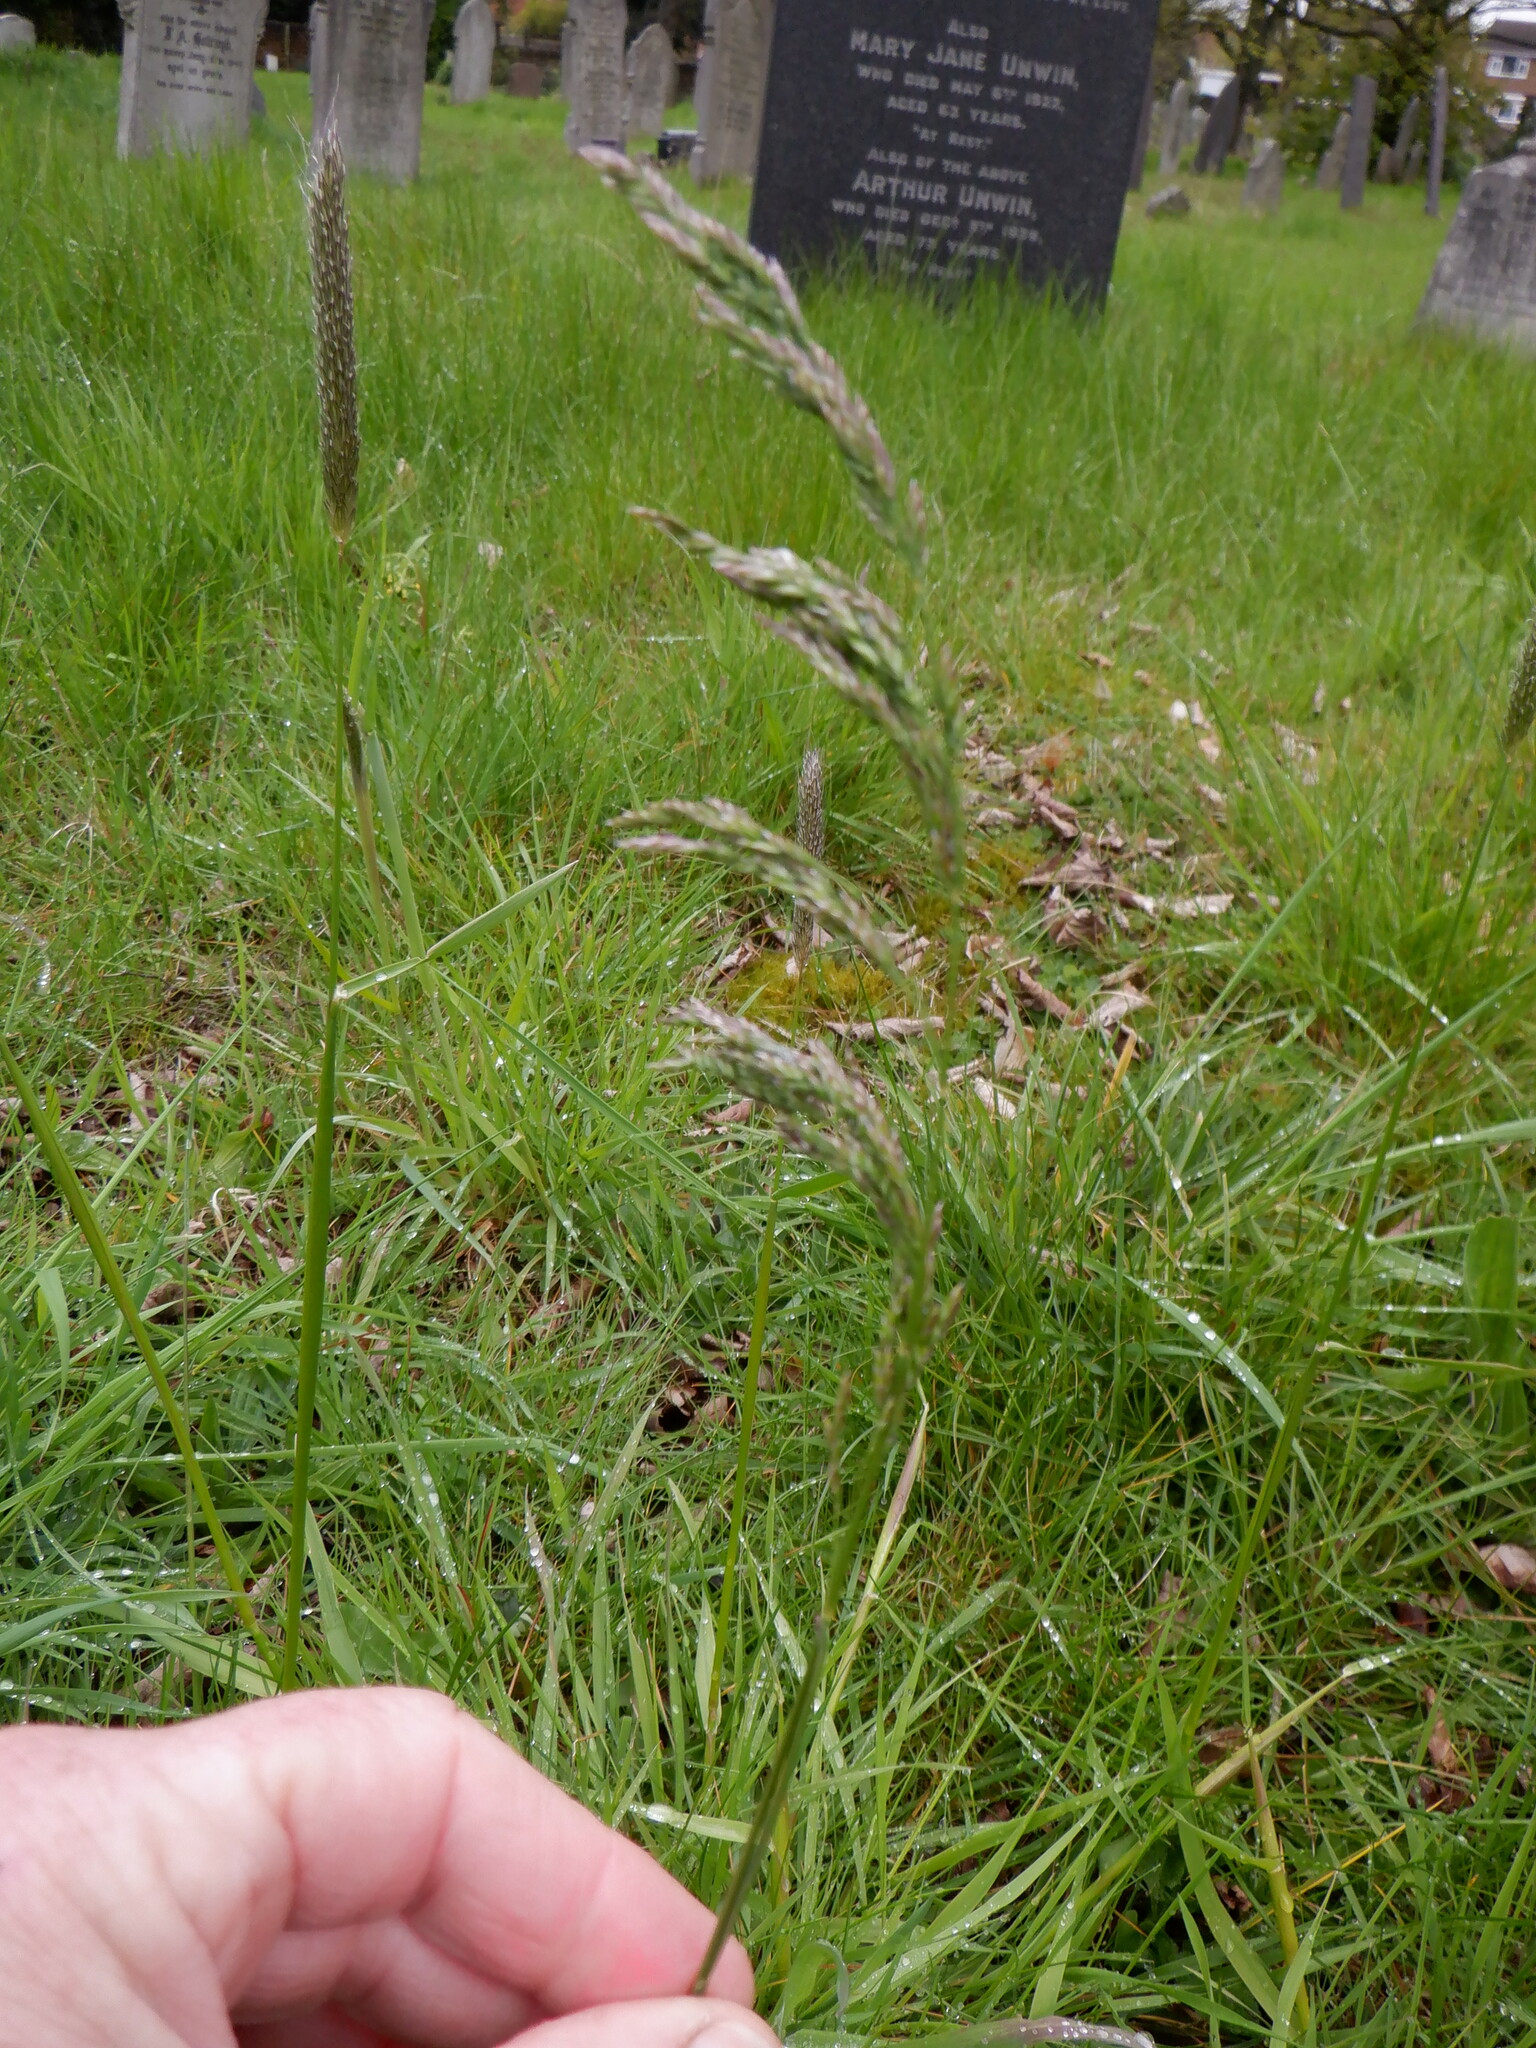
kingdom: Plantae
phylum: Tracheophyta
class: Liliopsida
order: Poales
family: Poaceae
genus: Holcus
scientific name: Holcus lanatus
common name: Yorkshire-fog
